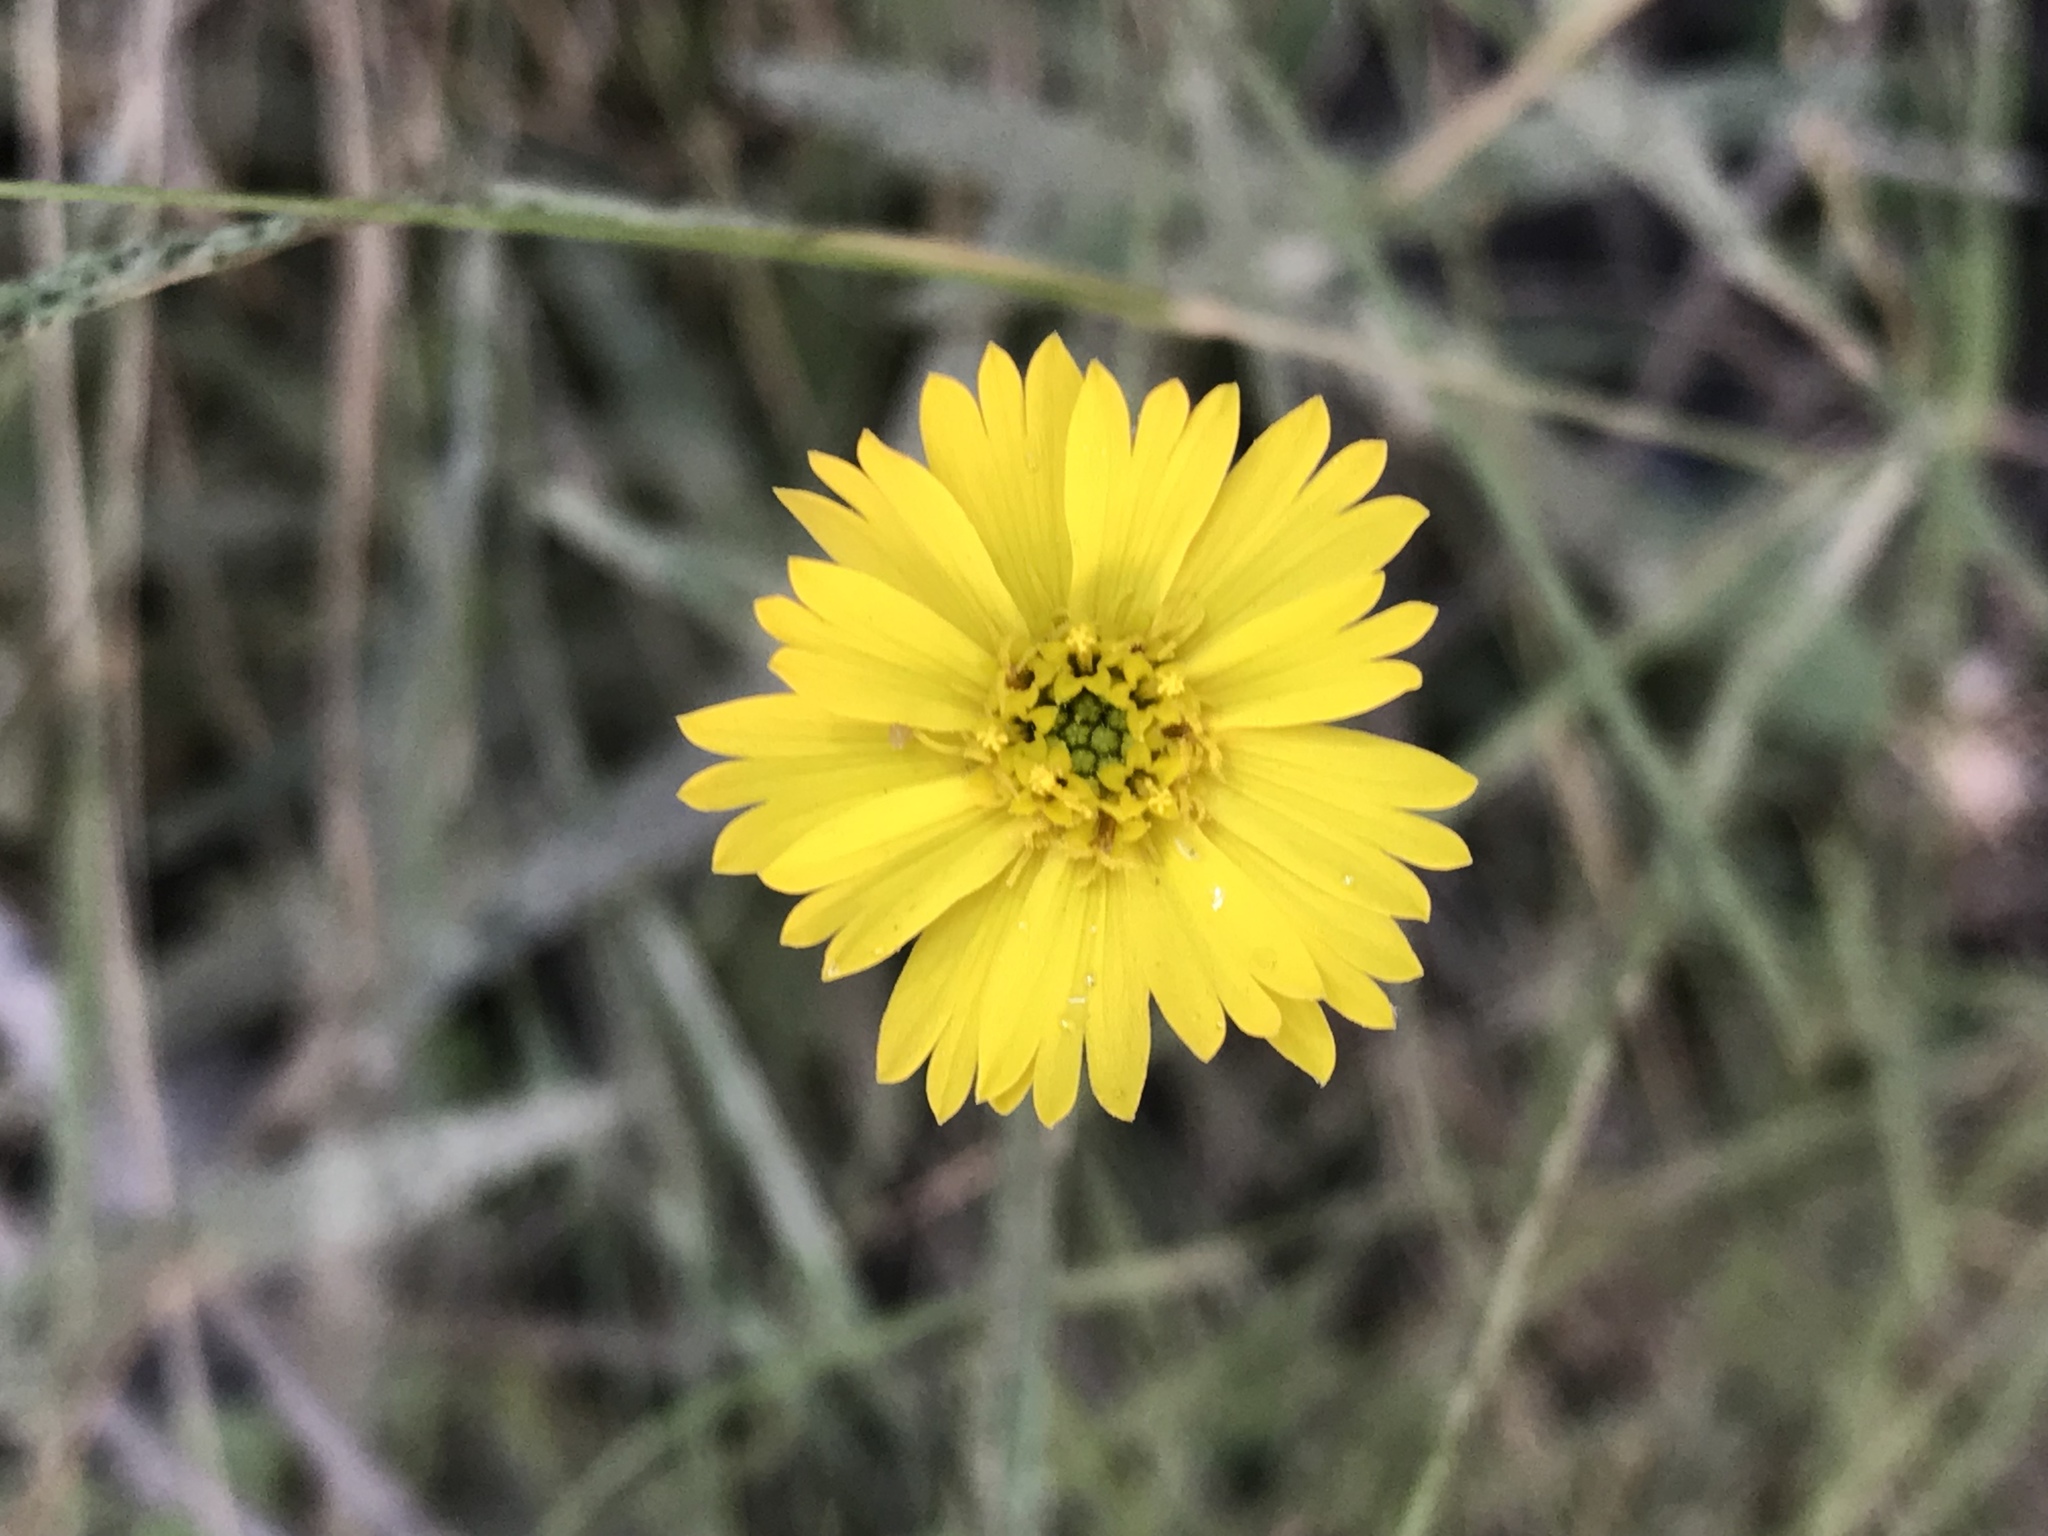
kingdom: Plantae
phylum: Tracheophyta
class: Magnoliopsida
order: Asterales
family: Asteraceae
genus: Anisocarpus
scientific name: Anisocarpus madioides
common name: Woodland madia
